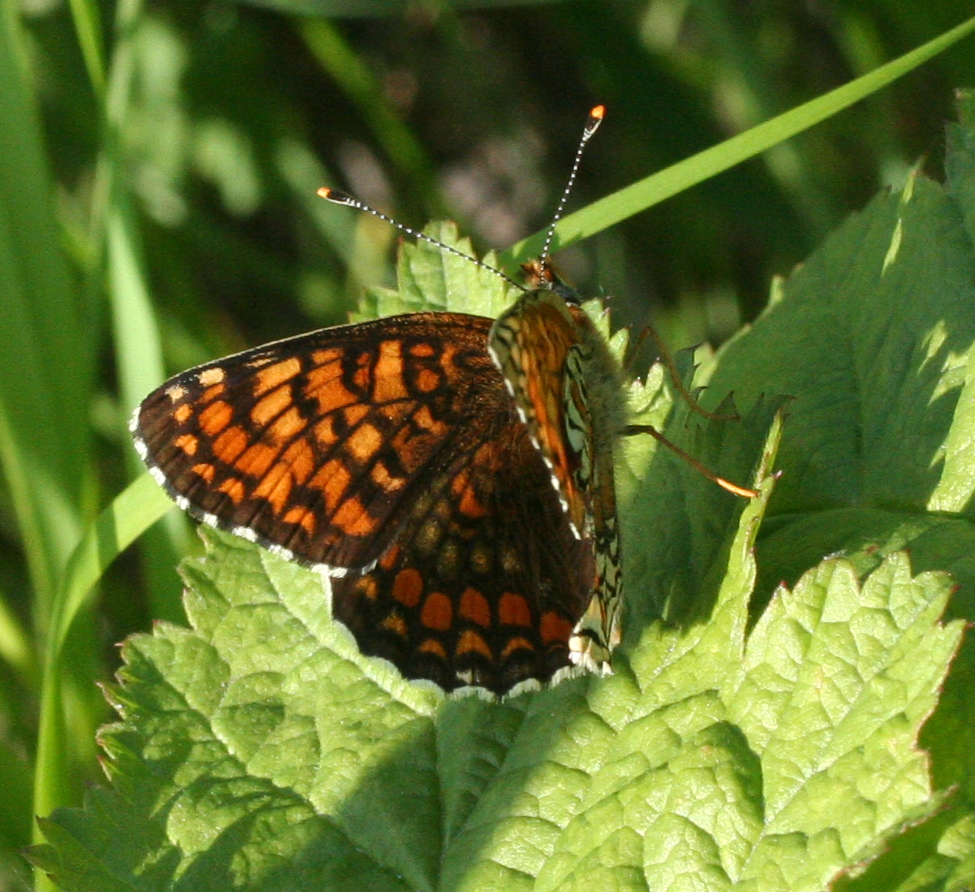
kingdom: Animalia
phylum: Arthropoda
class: Insecta
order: Lepidoptera
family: Nymphalidae
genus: Melitaea
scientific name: Melitaea phoebe
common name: Knapweed fritillary
